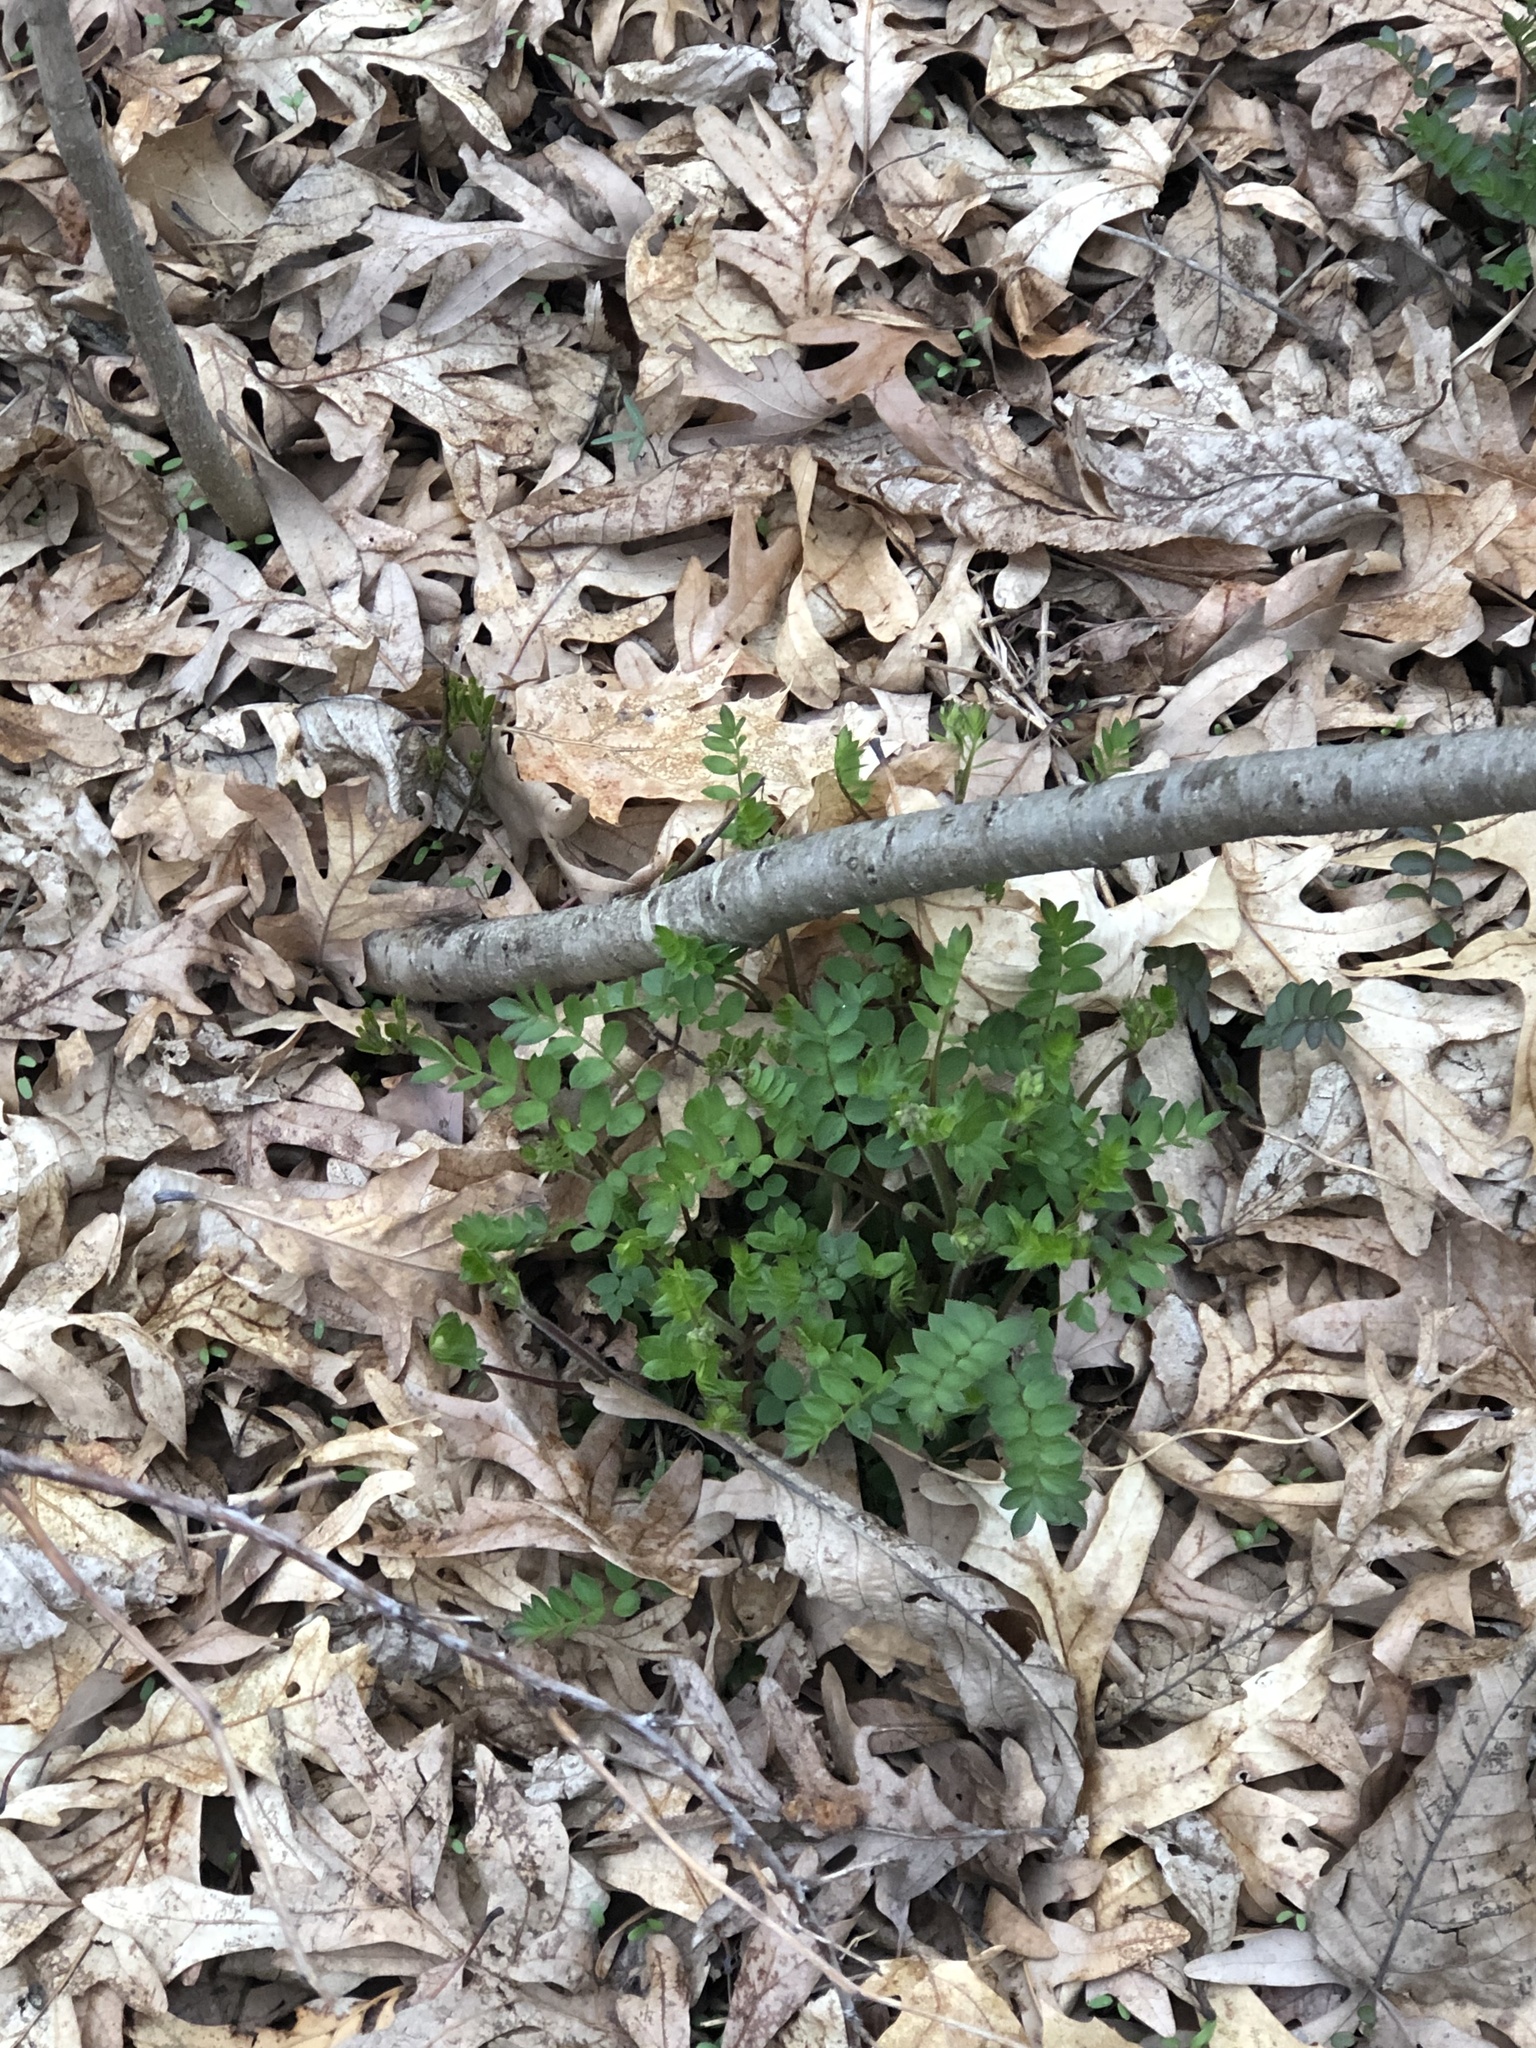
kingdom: Plantae
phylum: Tracheophyta
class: Magnoliopsida
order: Ericales
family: Polemoniaceae
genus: Polemonium
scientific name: Polemonium reptans
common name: Creeping jacob's-ladder
